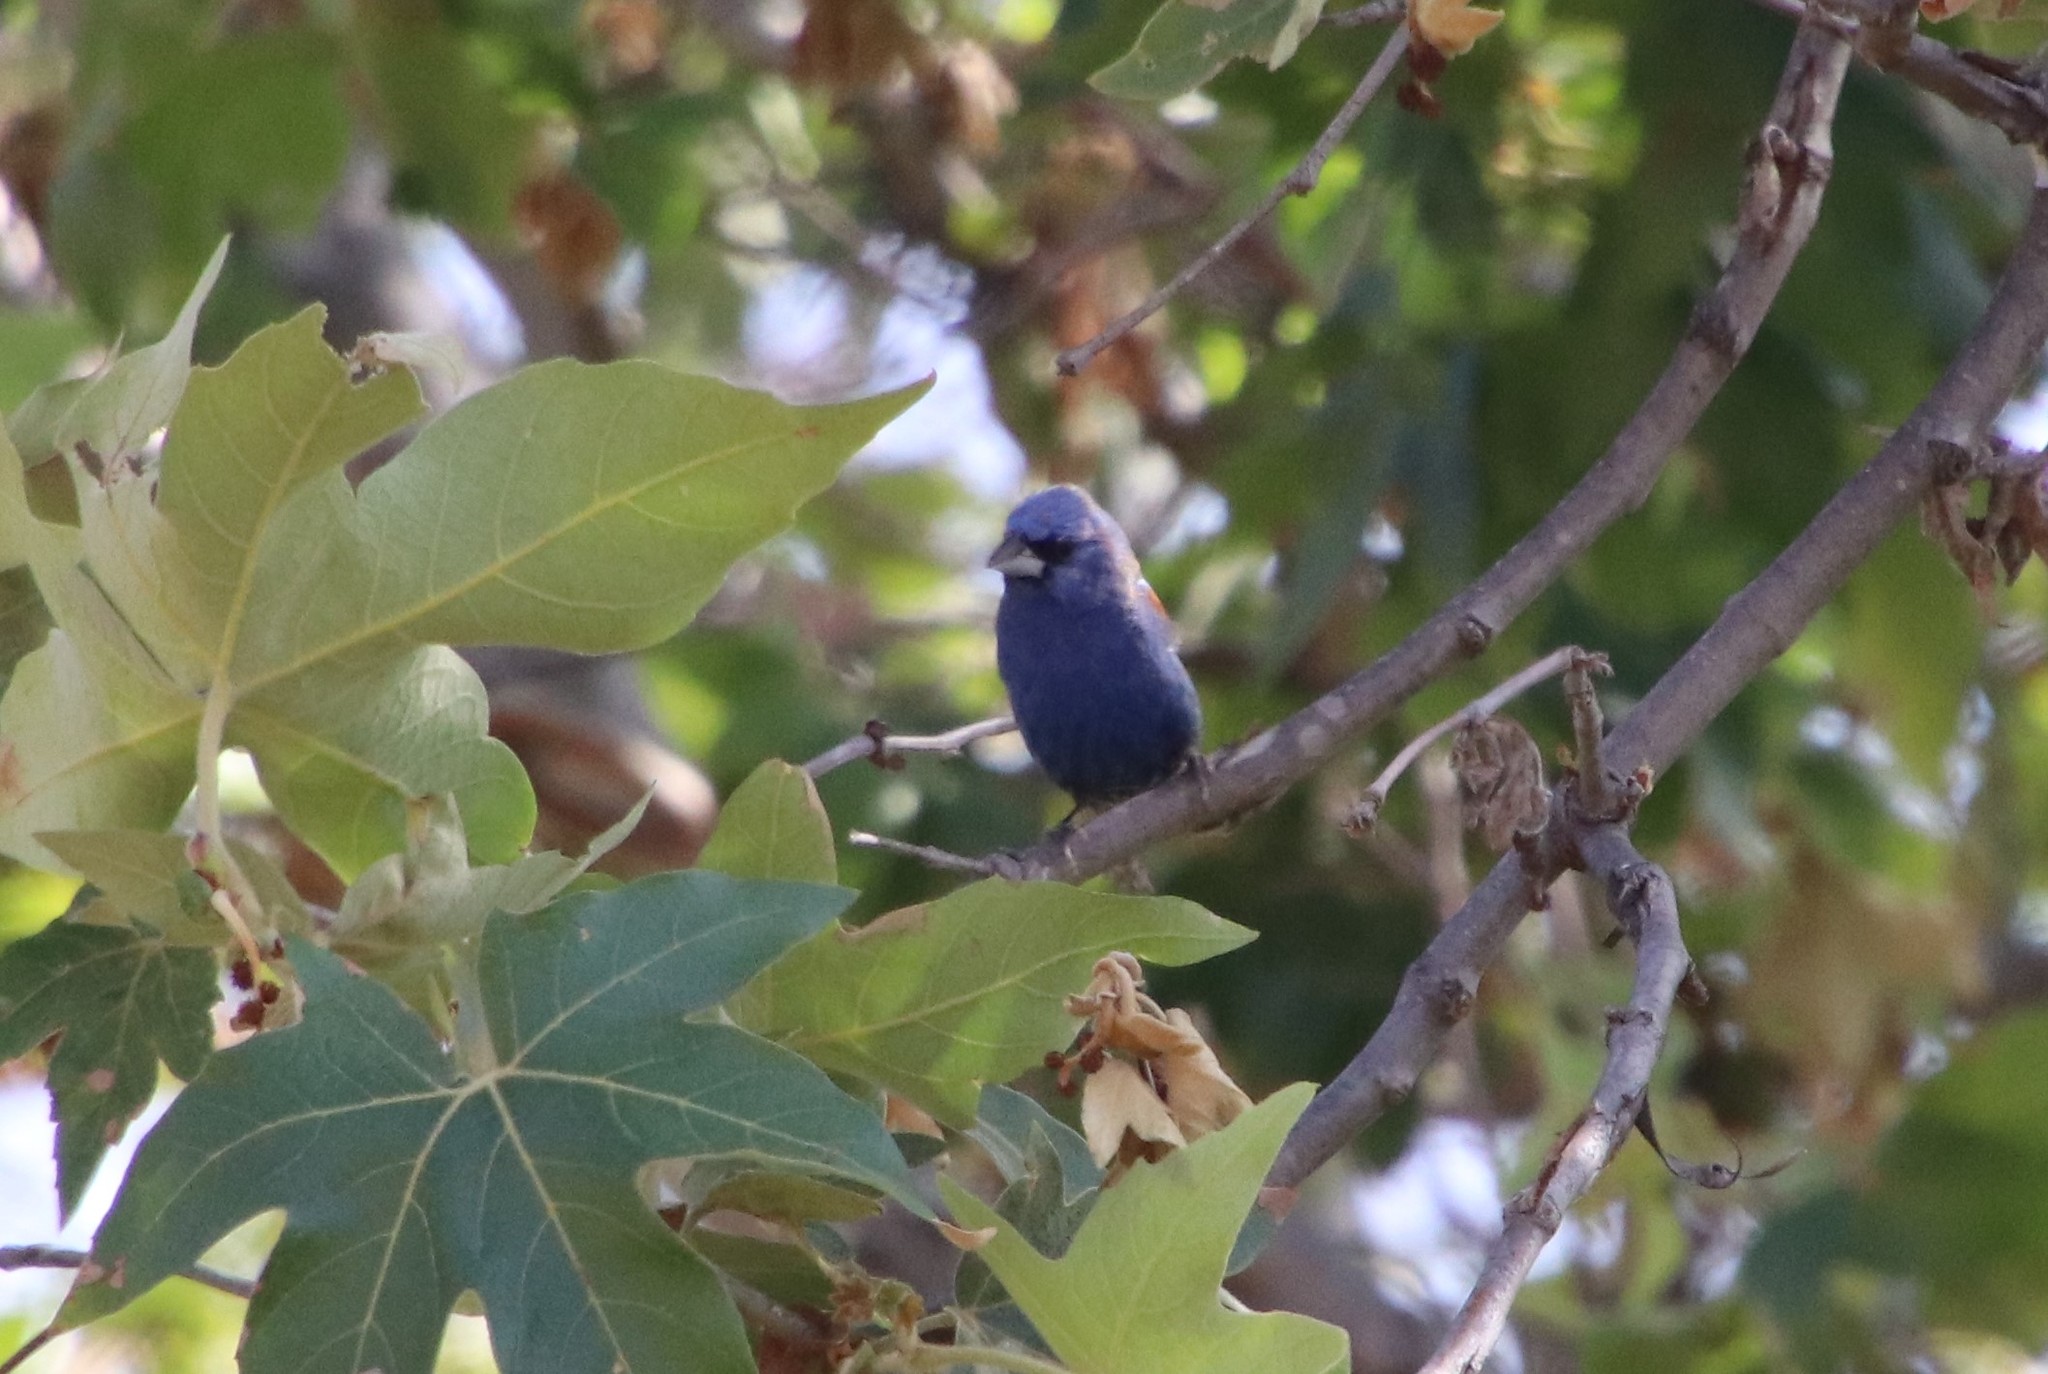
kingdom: Animalia
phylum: Chordata
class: Aves
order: Passeriformes
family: Cardinalidae
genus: Passerina
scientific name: Passerina caerulea
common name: Blue grosbeak
